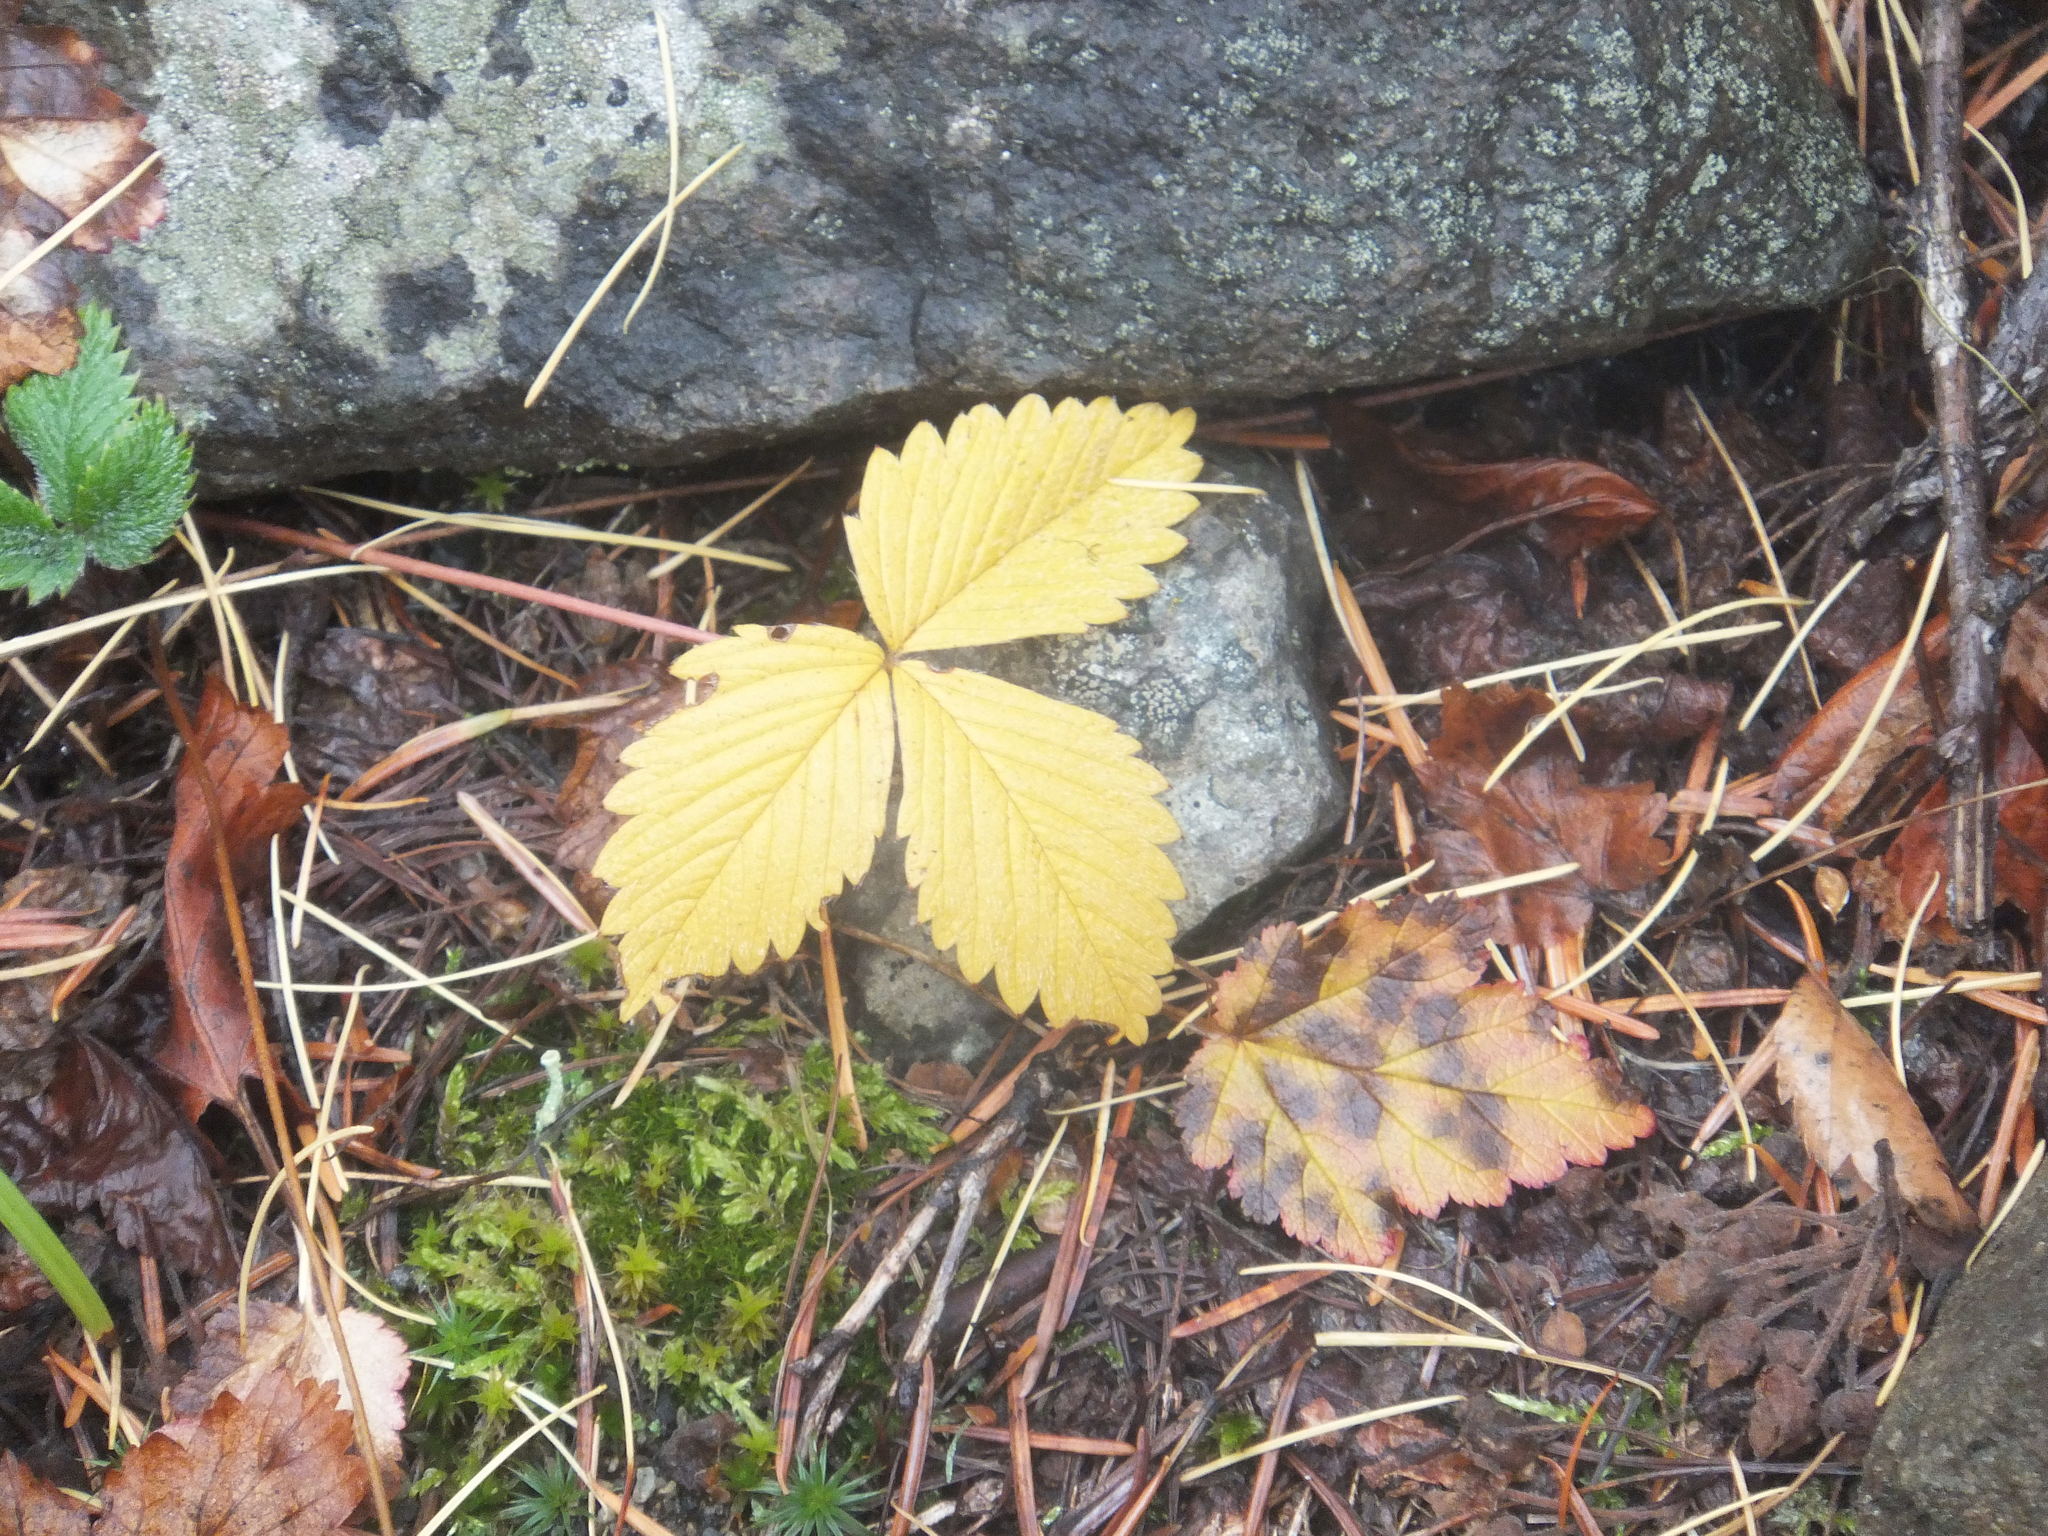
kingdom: Plantae
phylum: Tracheophyta
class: Magnoliopsida
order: Rosales
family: Rosaceae
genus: Fragaria
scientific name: Fragaria vesca
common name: Wild strawberry
